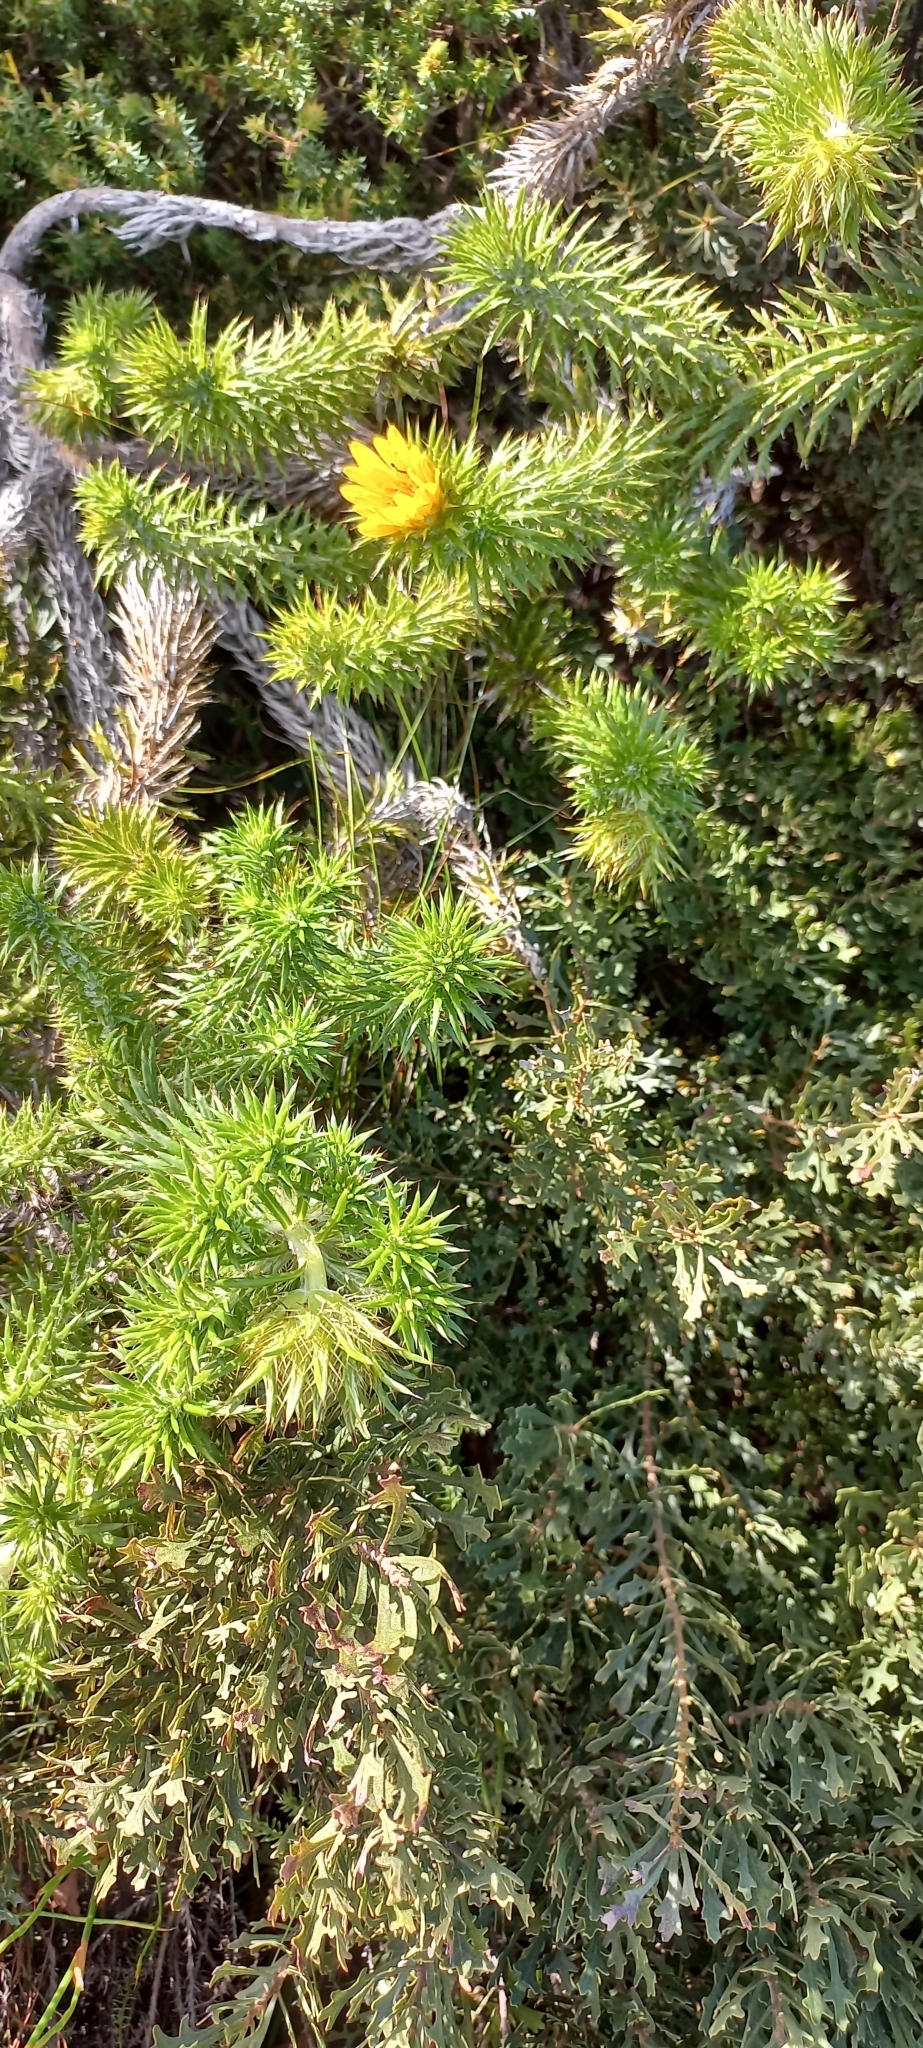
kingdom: Plantae
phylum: Tracheophyta
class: Magnoliopsida
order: Asterales
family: Asteraceae
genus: Cullumia
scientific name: Cullumia squarrosa
